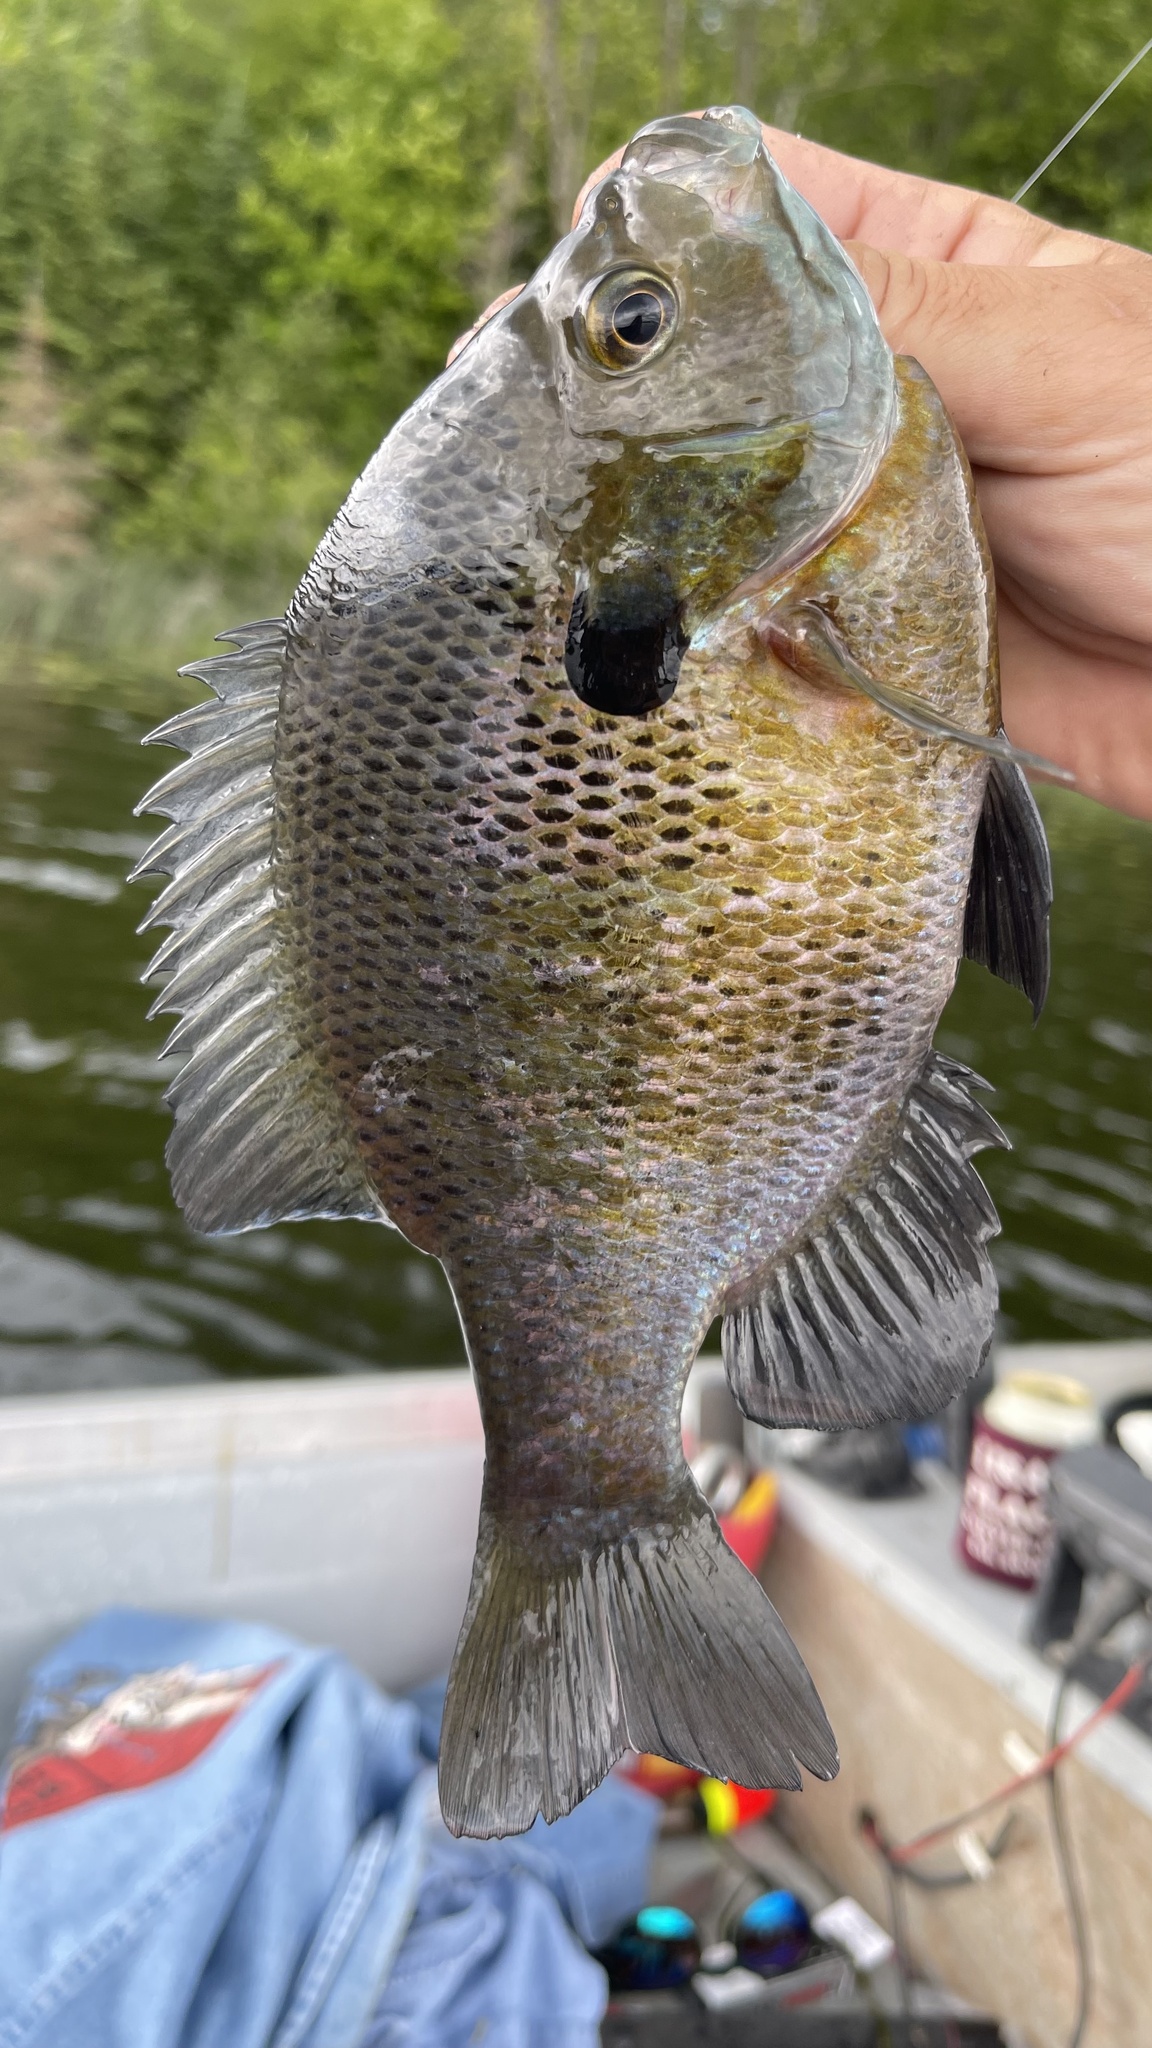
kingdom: Animalia
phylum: Chordata
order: Perciformes
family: Centrarchidae
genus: Lepomis
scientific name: Lepomis macrochirus
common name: Bluegill
